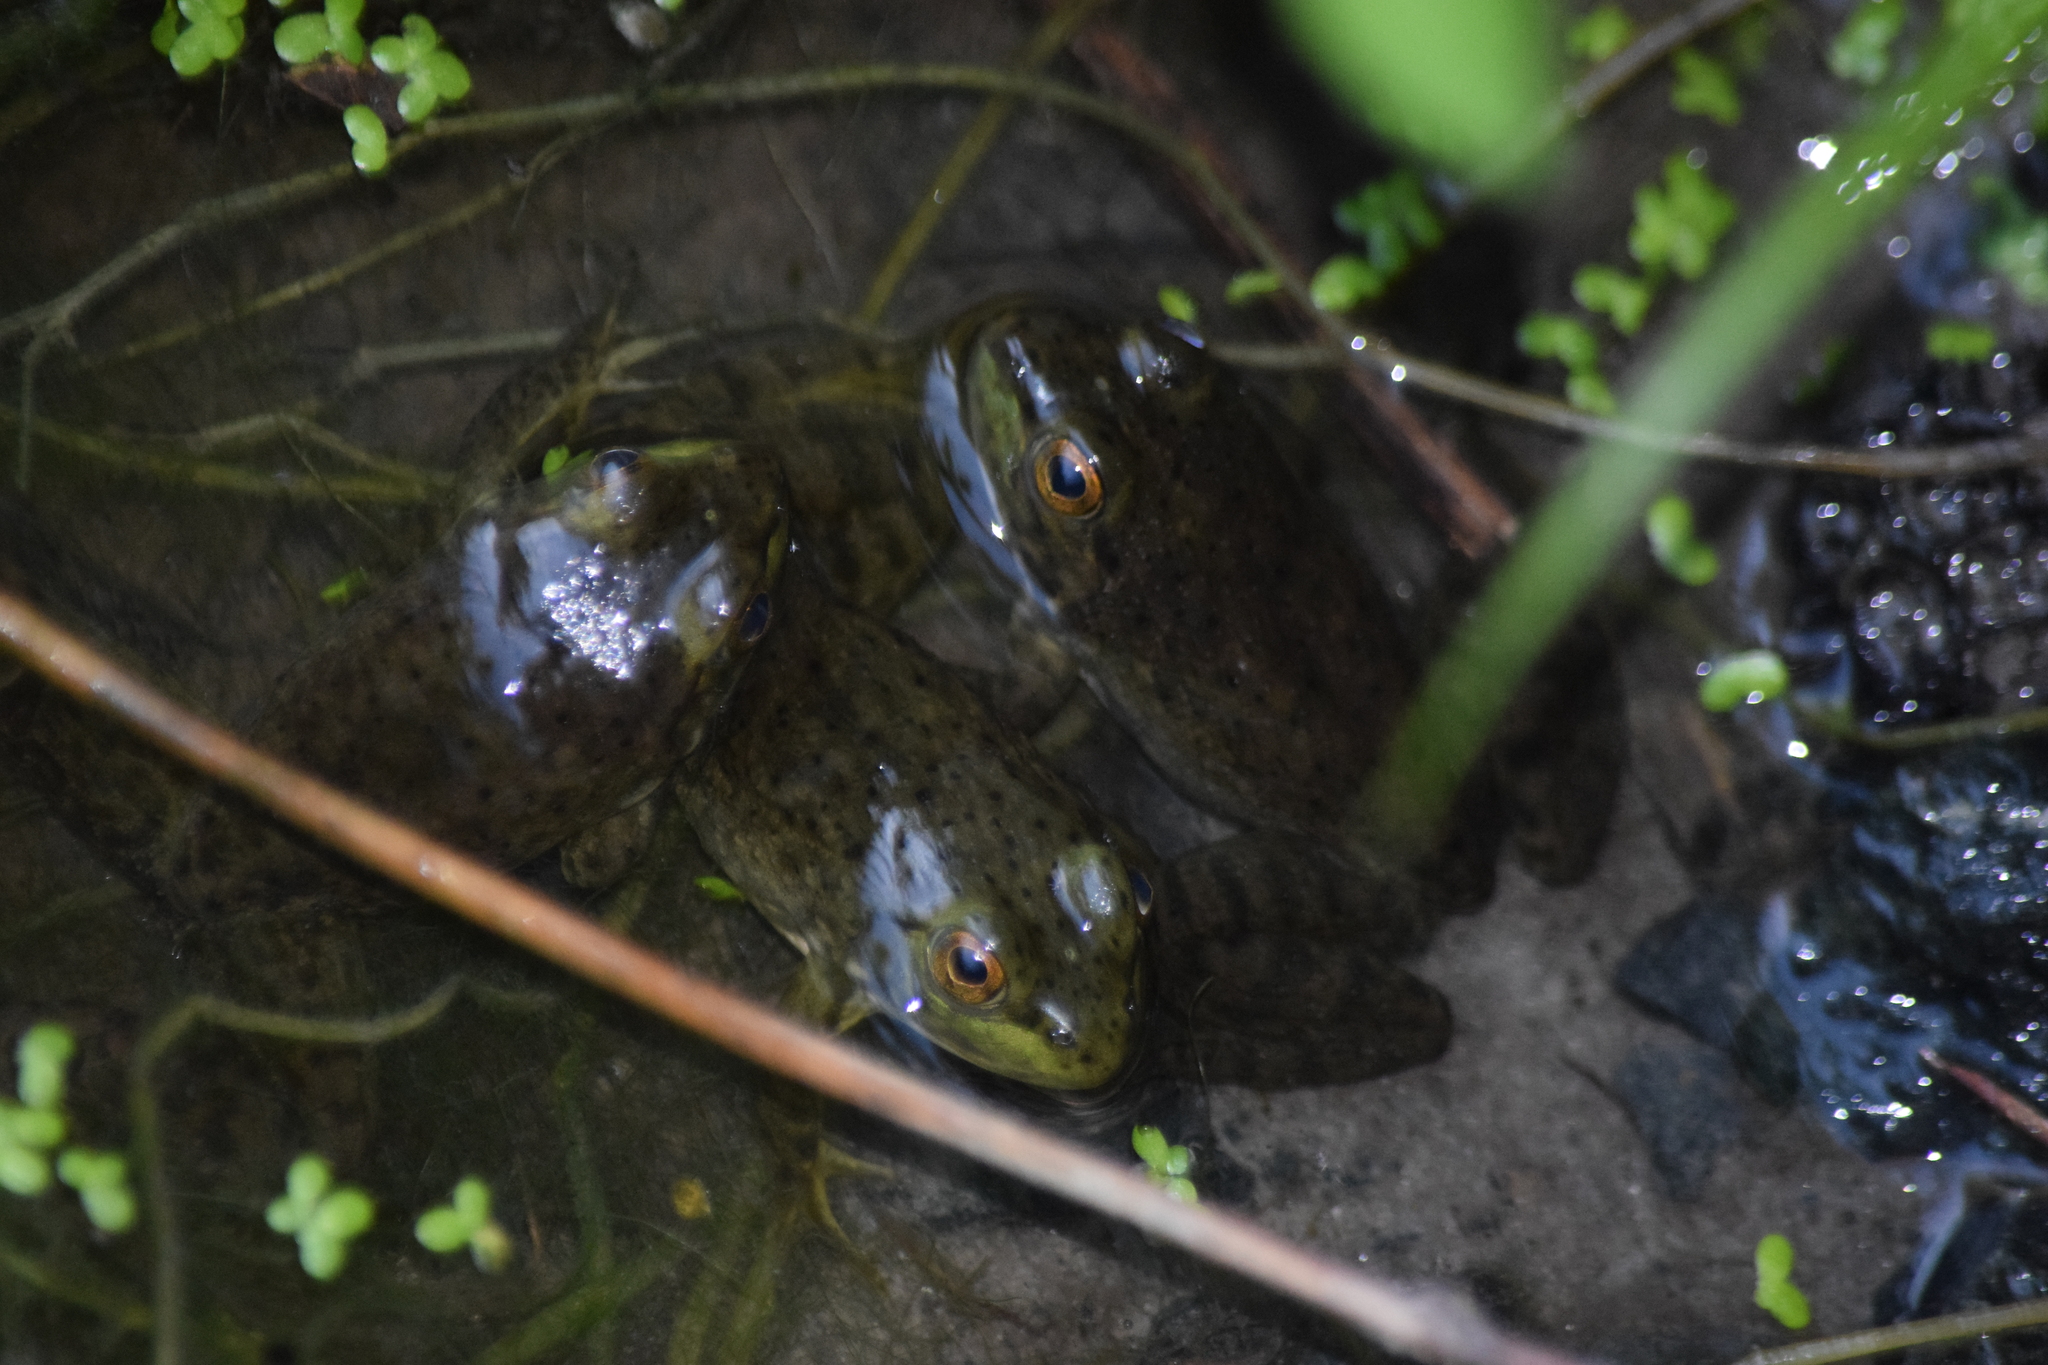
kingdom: Animalia
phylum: Chordata
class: Amphibia
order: Anura
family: Ranidae
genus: Lithobates
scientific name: Lithobates catesbeianus
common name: American bullfrog
